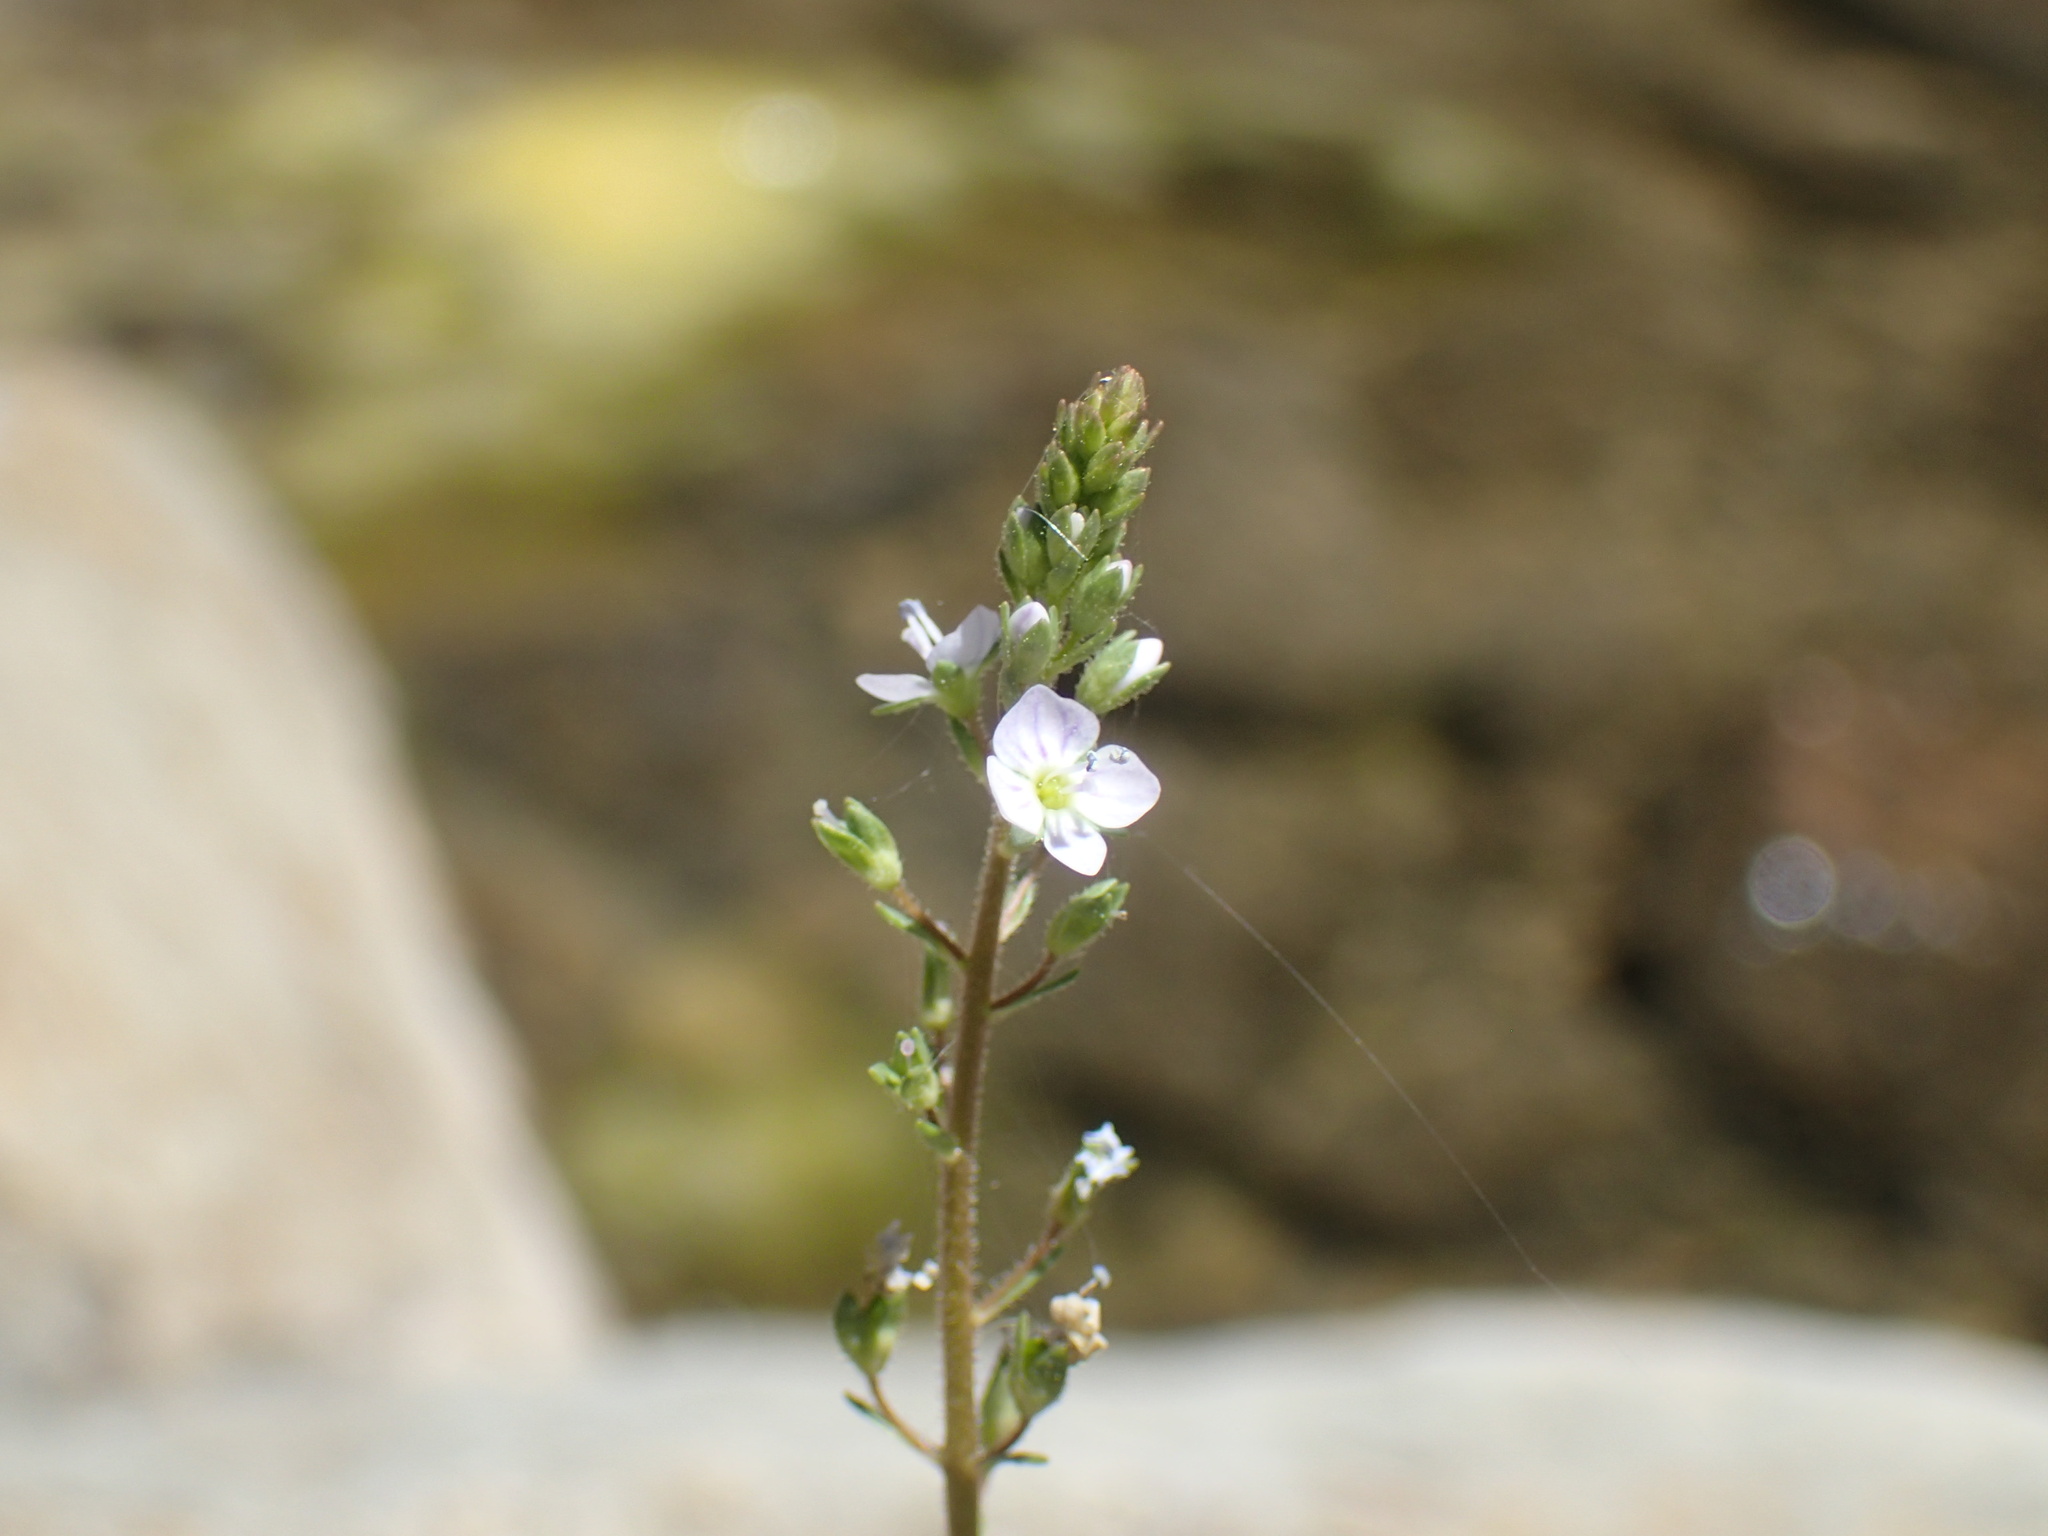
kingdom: Plantae
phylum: Tracheophyta
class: Magnoliopsida
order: Lamiales
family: Plantaginaceae
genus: Veronica
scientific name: Veronica anagallis-aquatica
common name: Water speedwell
